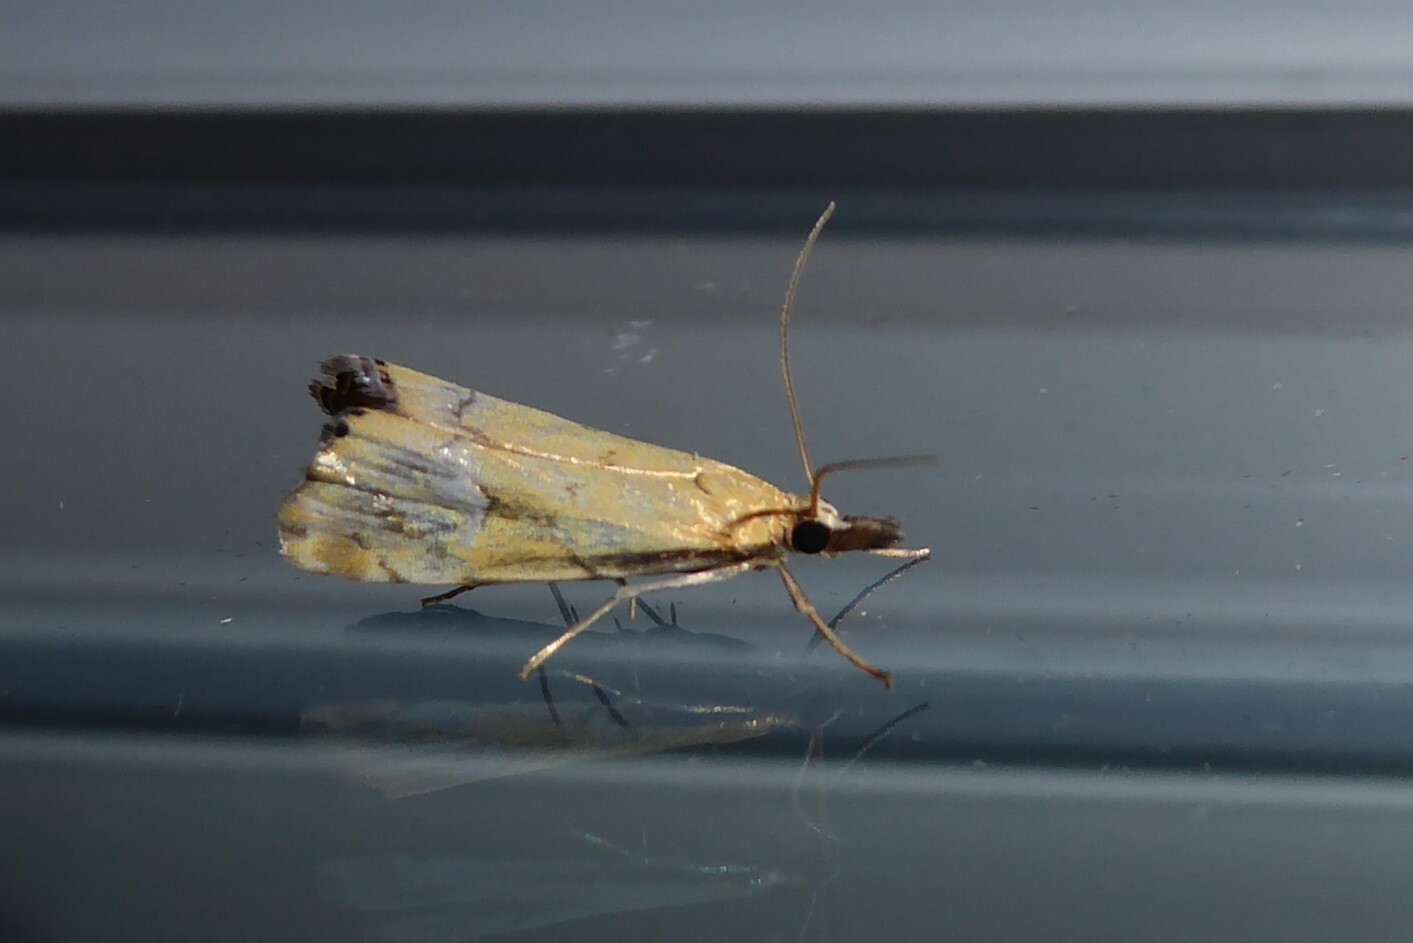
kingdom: Animalia
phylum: Arthropoda
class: Insecta
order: Lepidoptera
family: Crambidae
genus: Glaucocharis
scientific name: Glaucocharis lepidella
